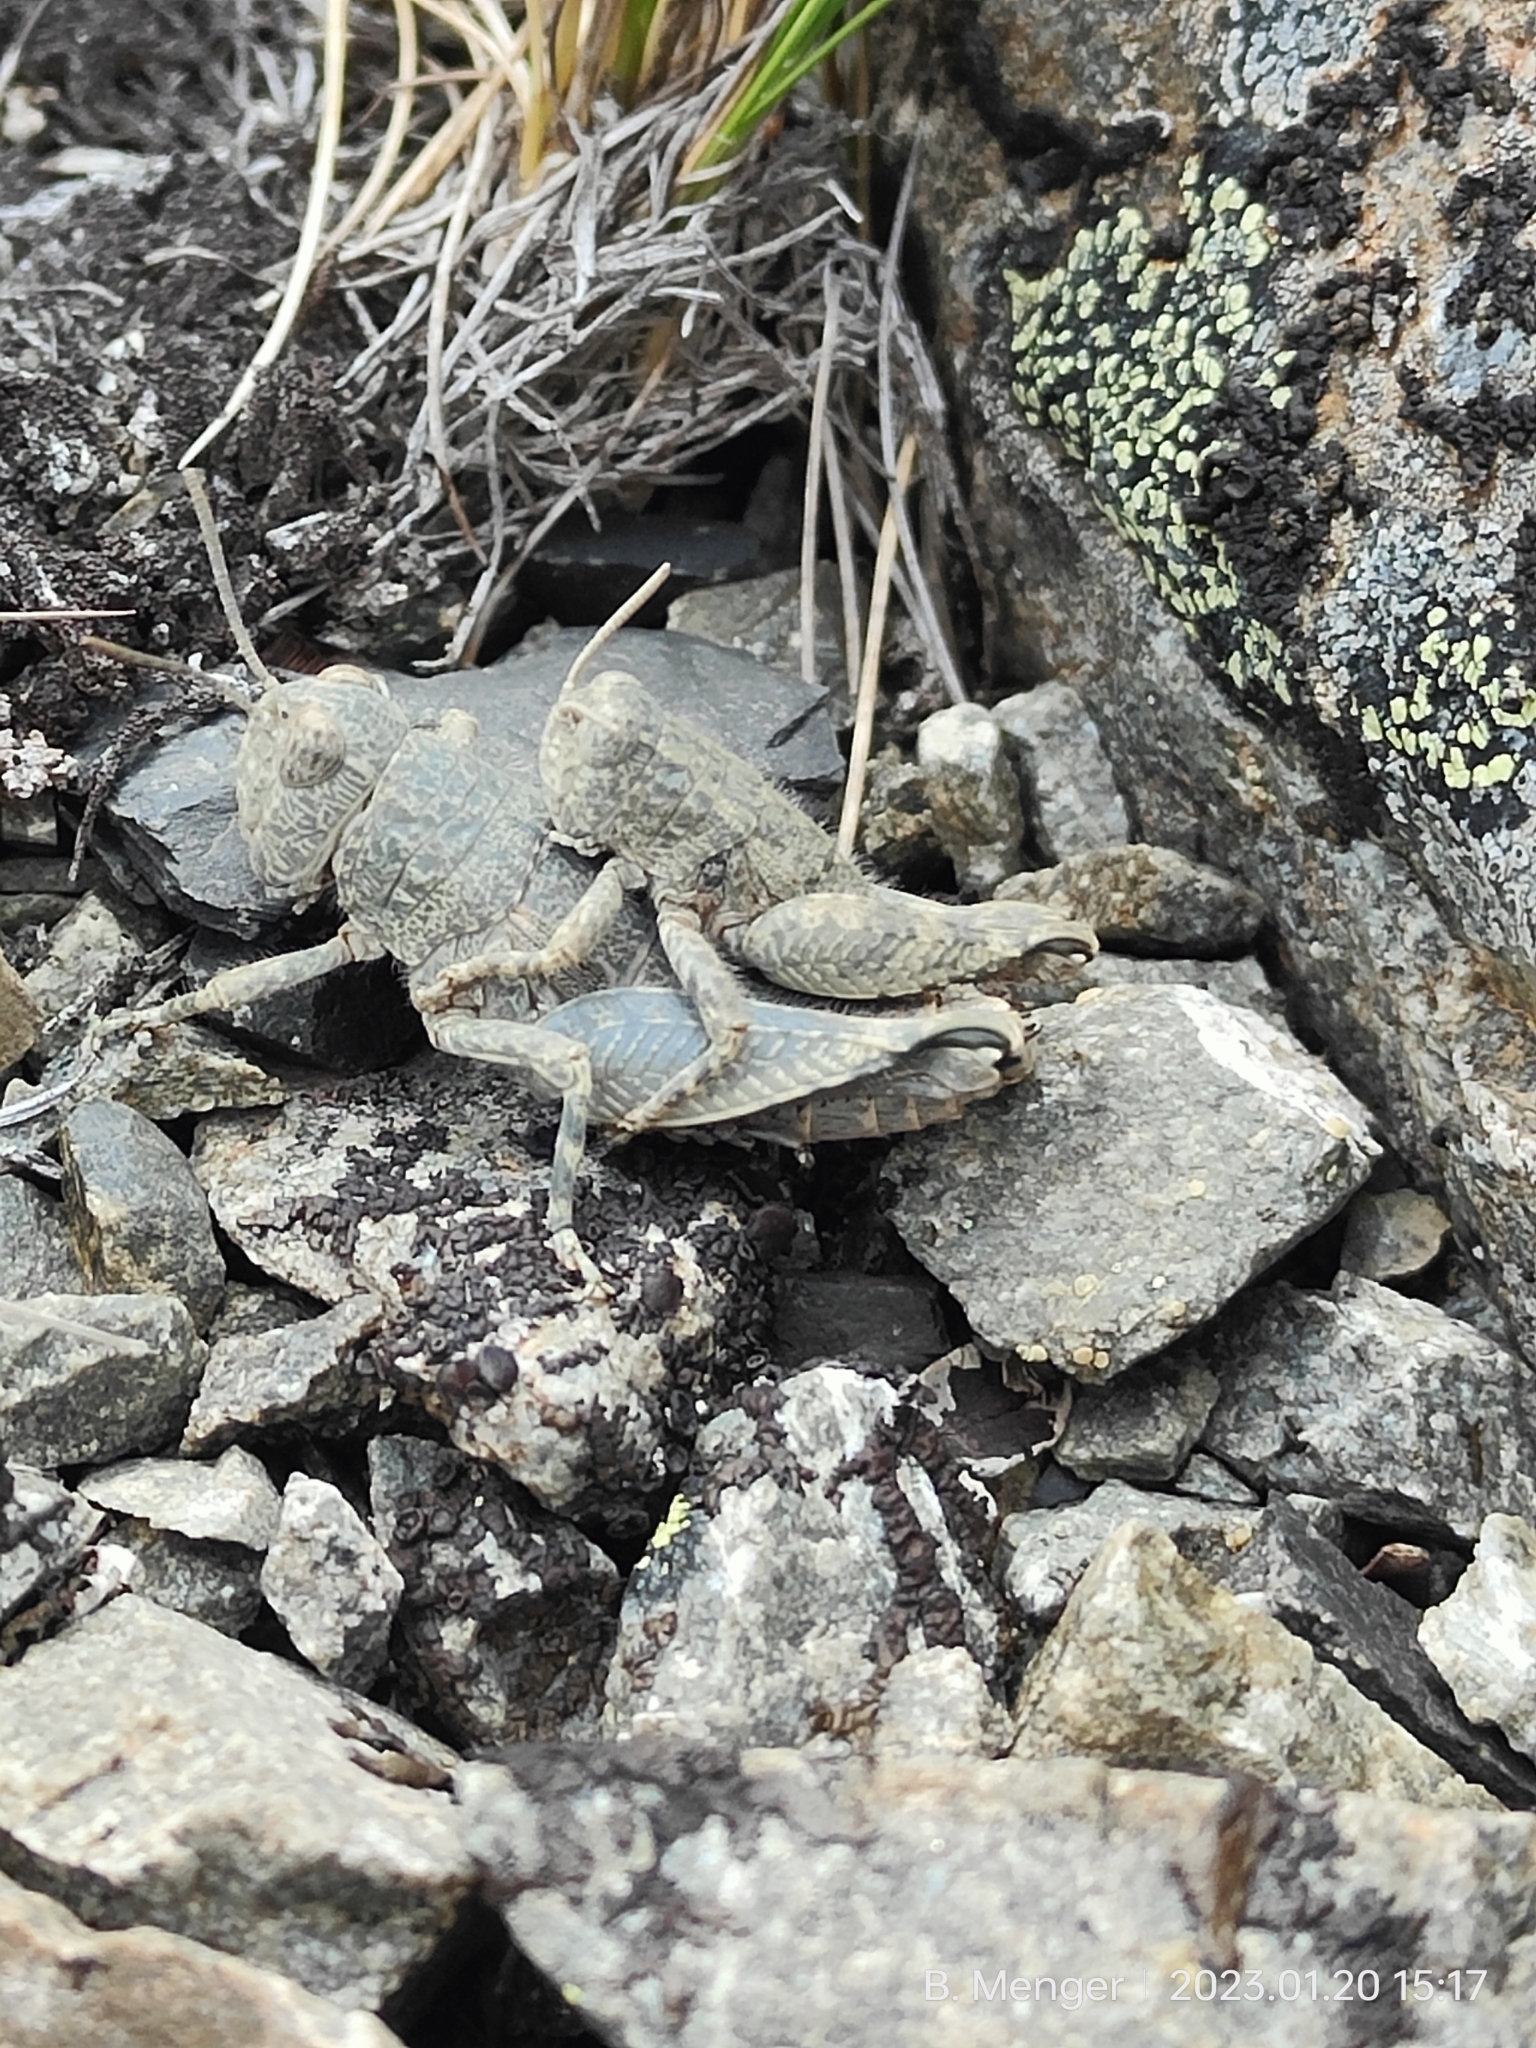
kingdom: Animalia
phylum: Arthropoda
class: Insecta
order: Orthoptera
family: Acrididae
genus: Sigaus
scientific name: Sigaus
